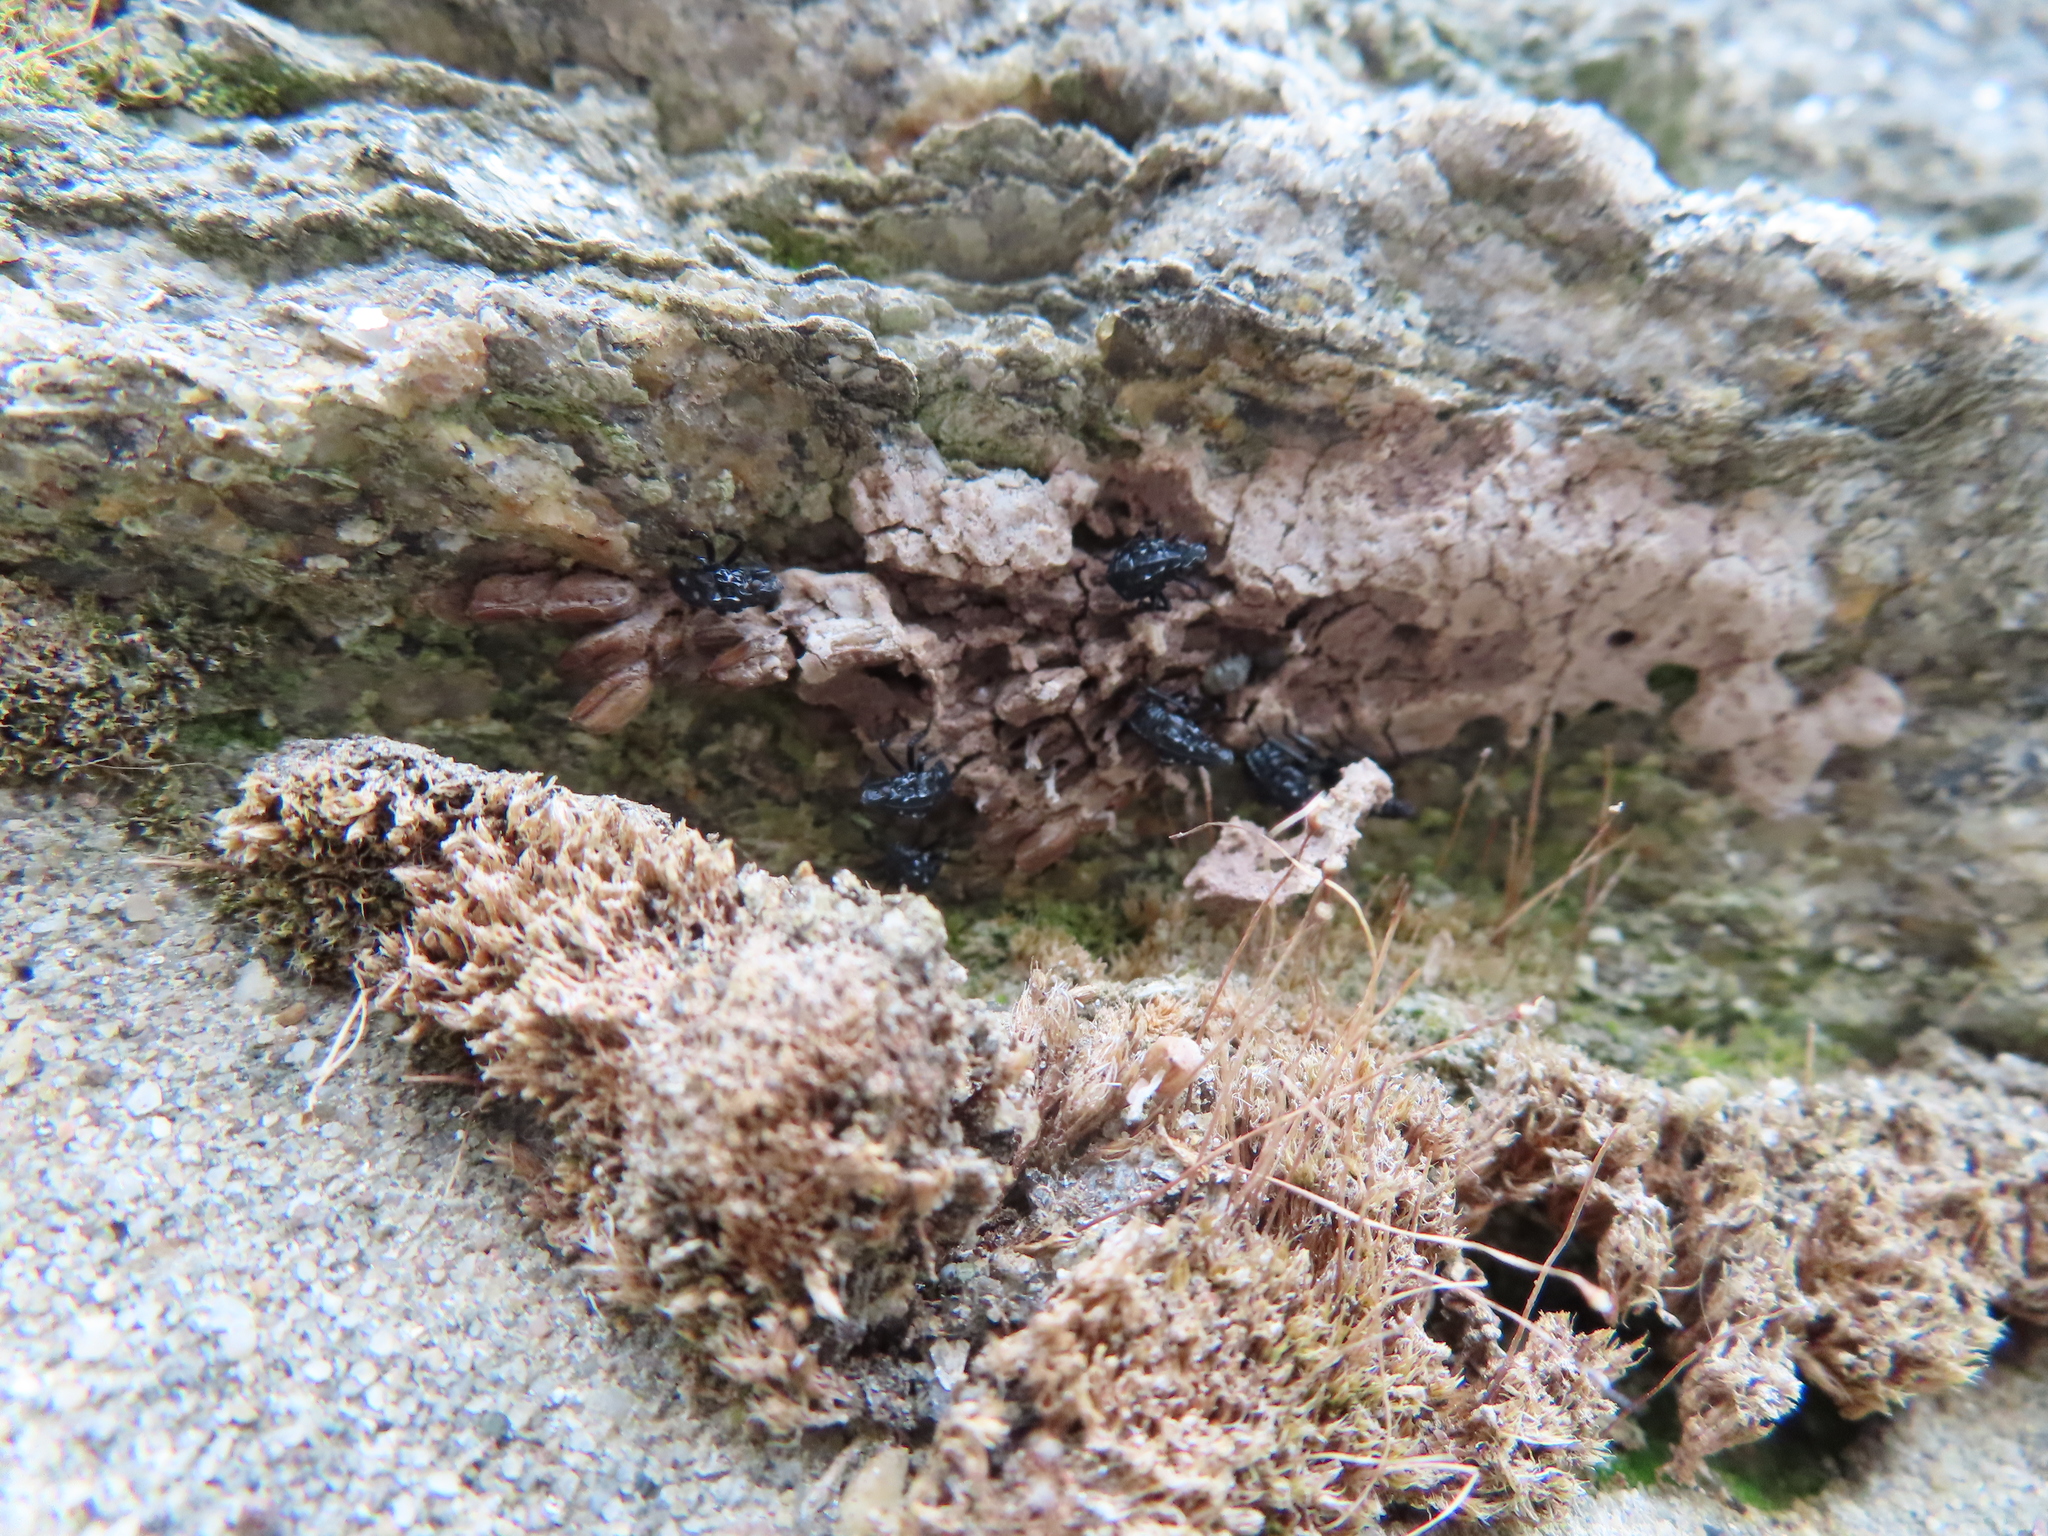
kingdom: Animalia
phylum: Arthropoda
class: Insecta
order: Hemiptera
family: Fulgoridae
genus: Lycorma
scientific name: Lycorma delicatula
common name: Spotted lanternfly
